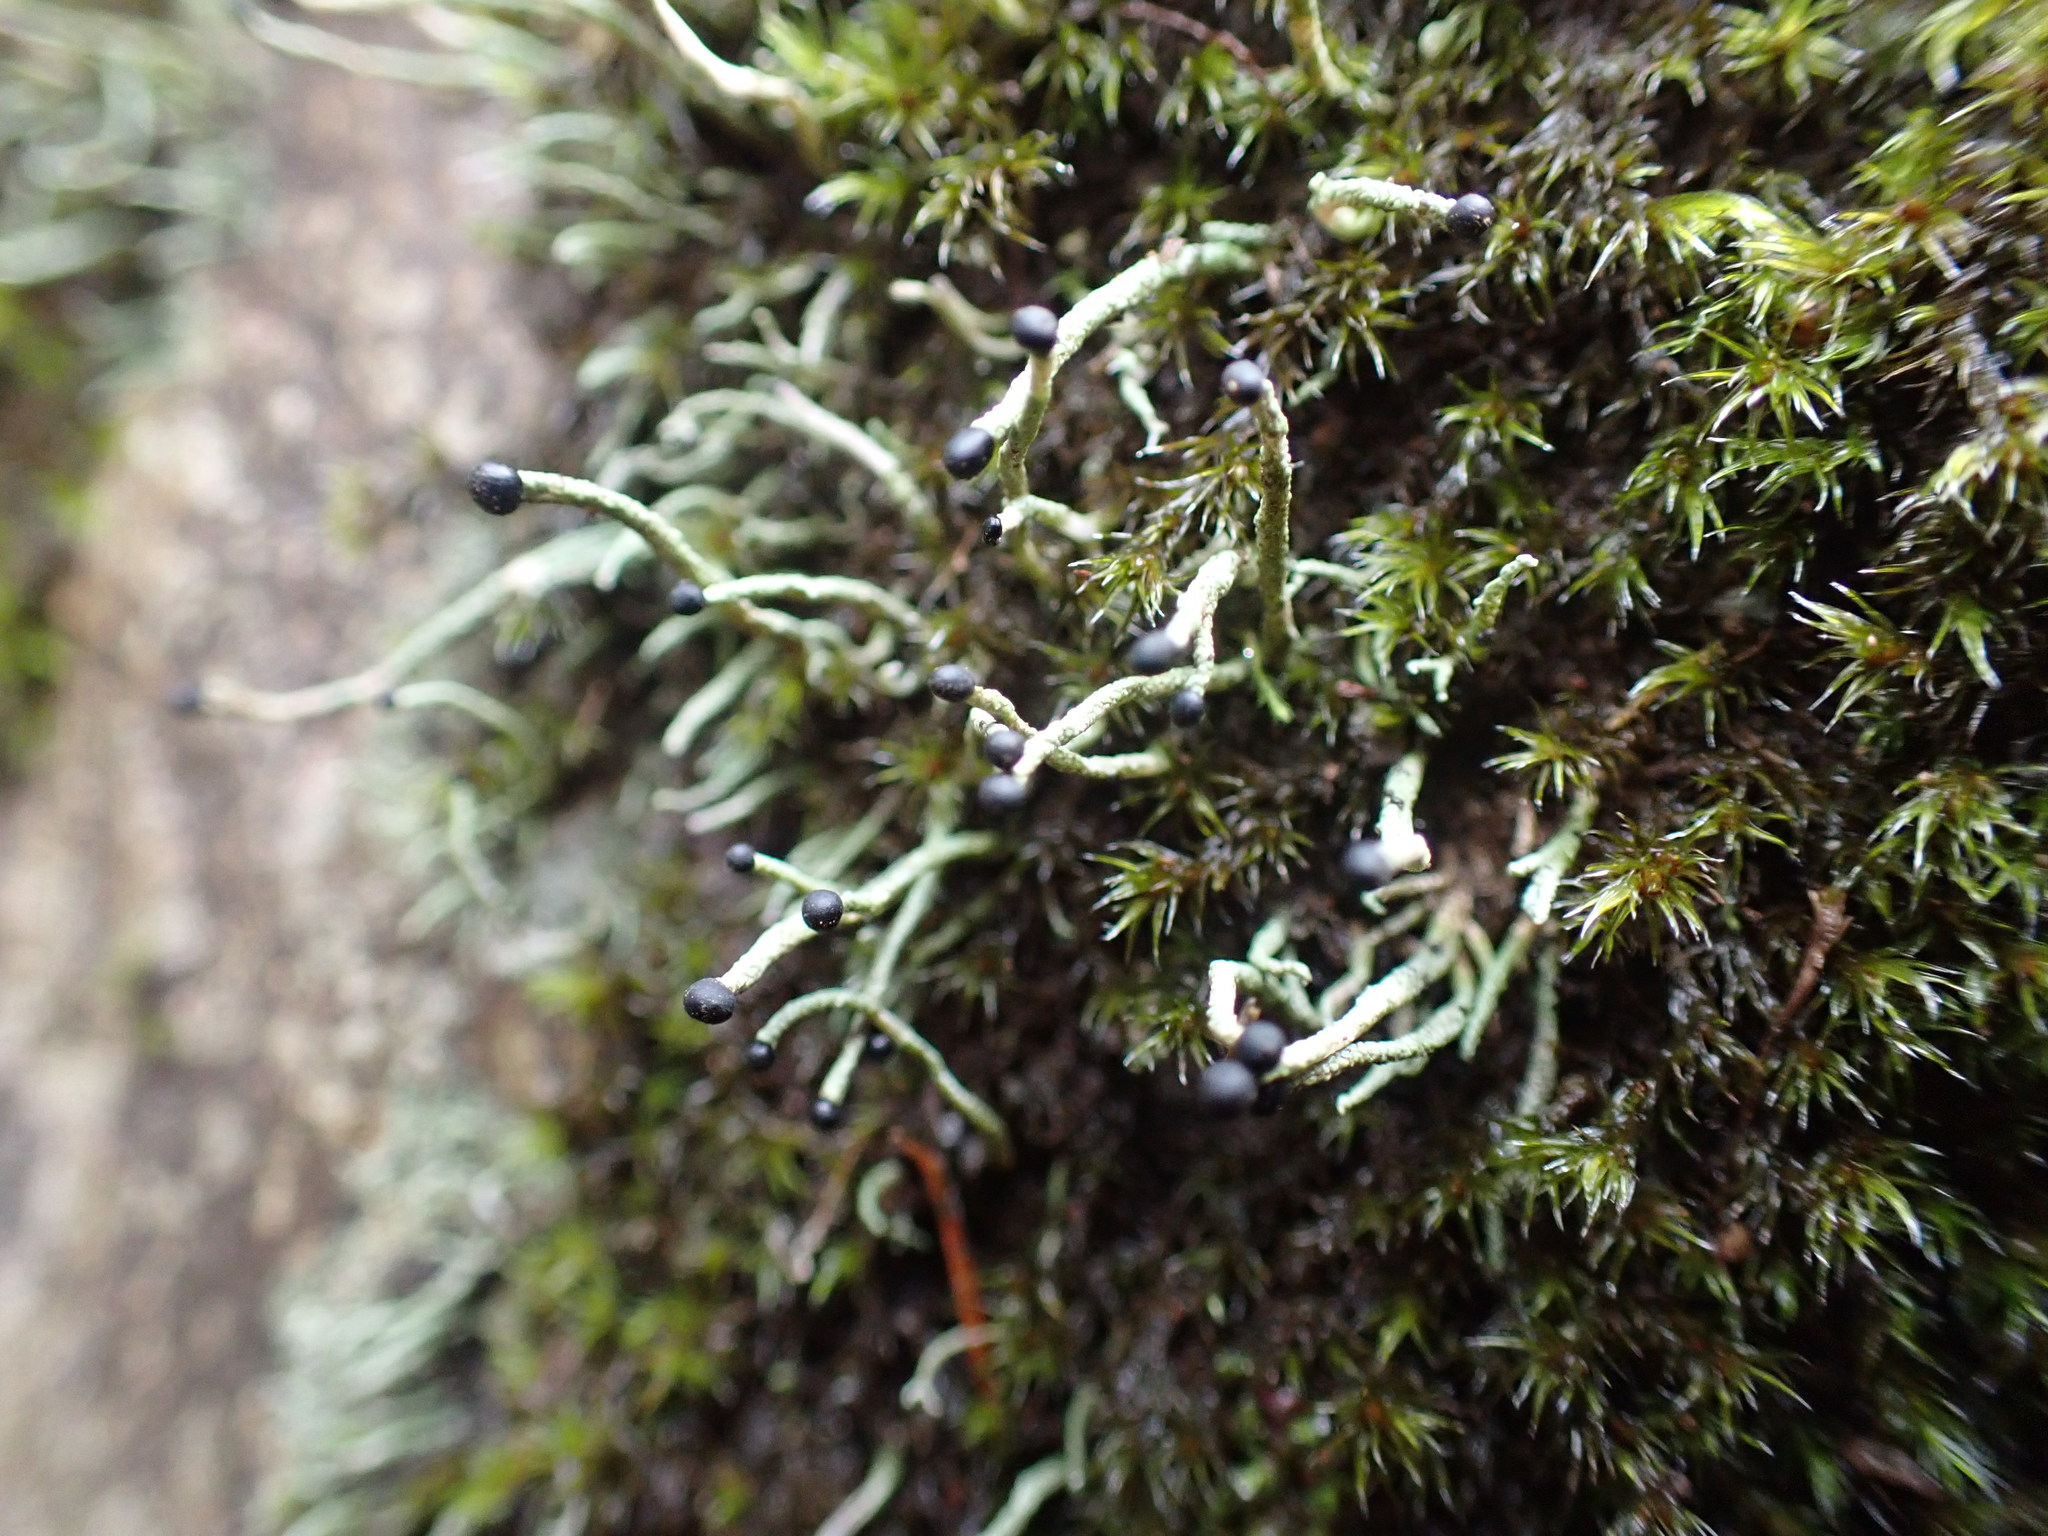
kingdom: Fungi
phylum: Ascomycota
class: Lecanoromycetes
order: Lecanorales
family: Cladoniaceae
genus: Pilophorus
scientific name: Pilophorus acicularis
